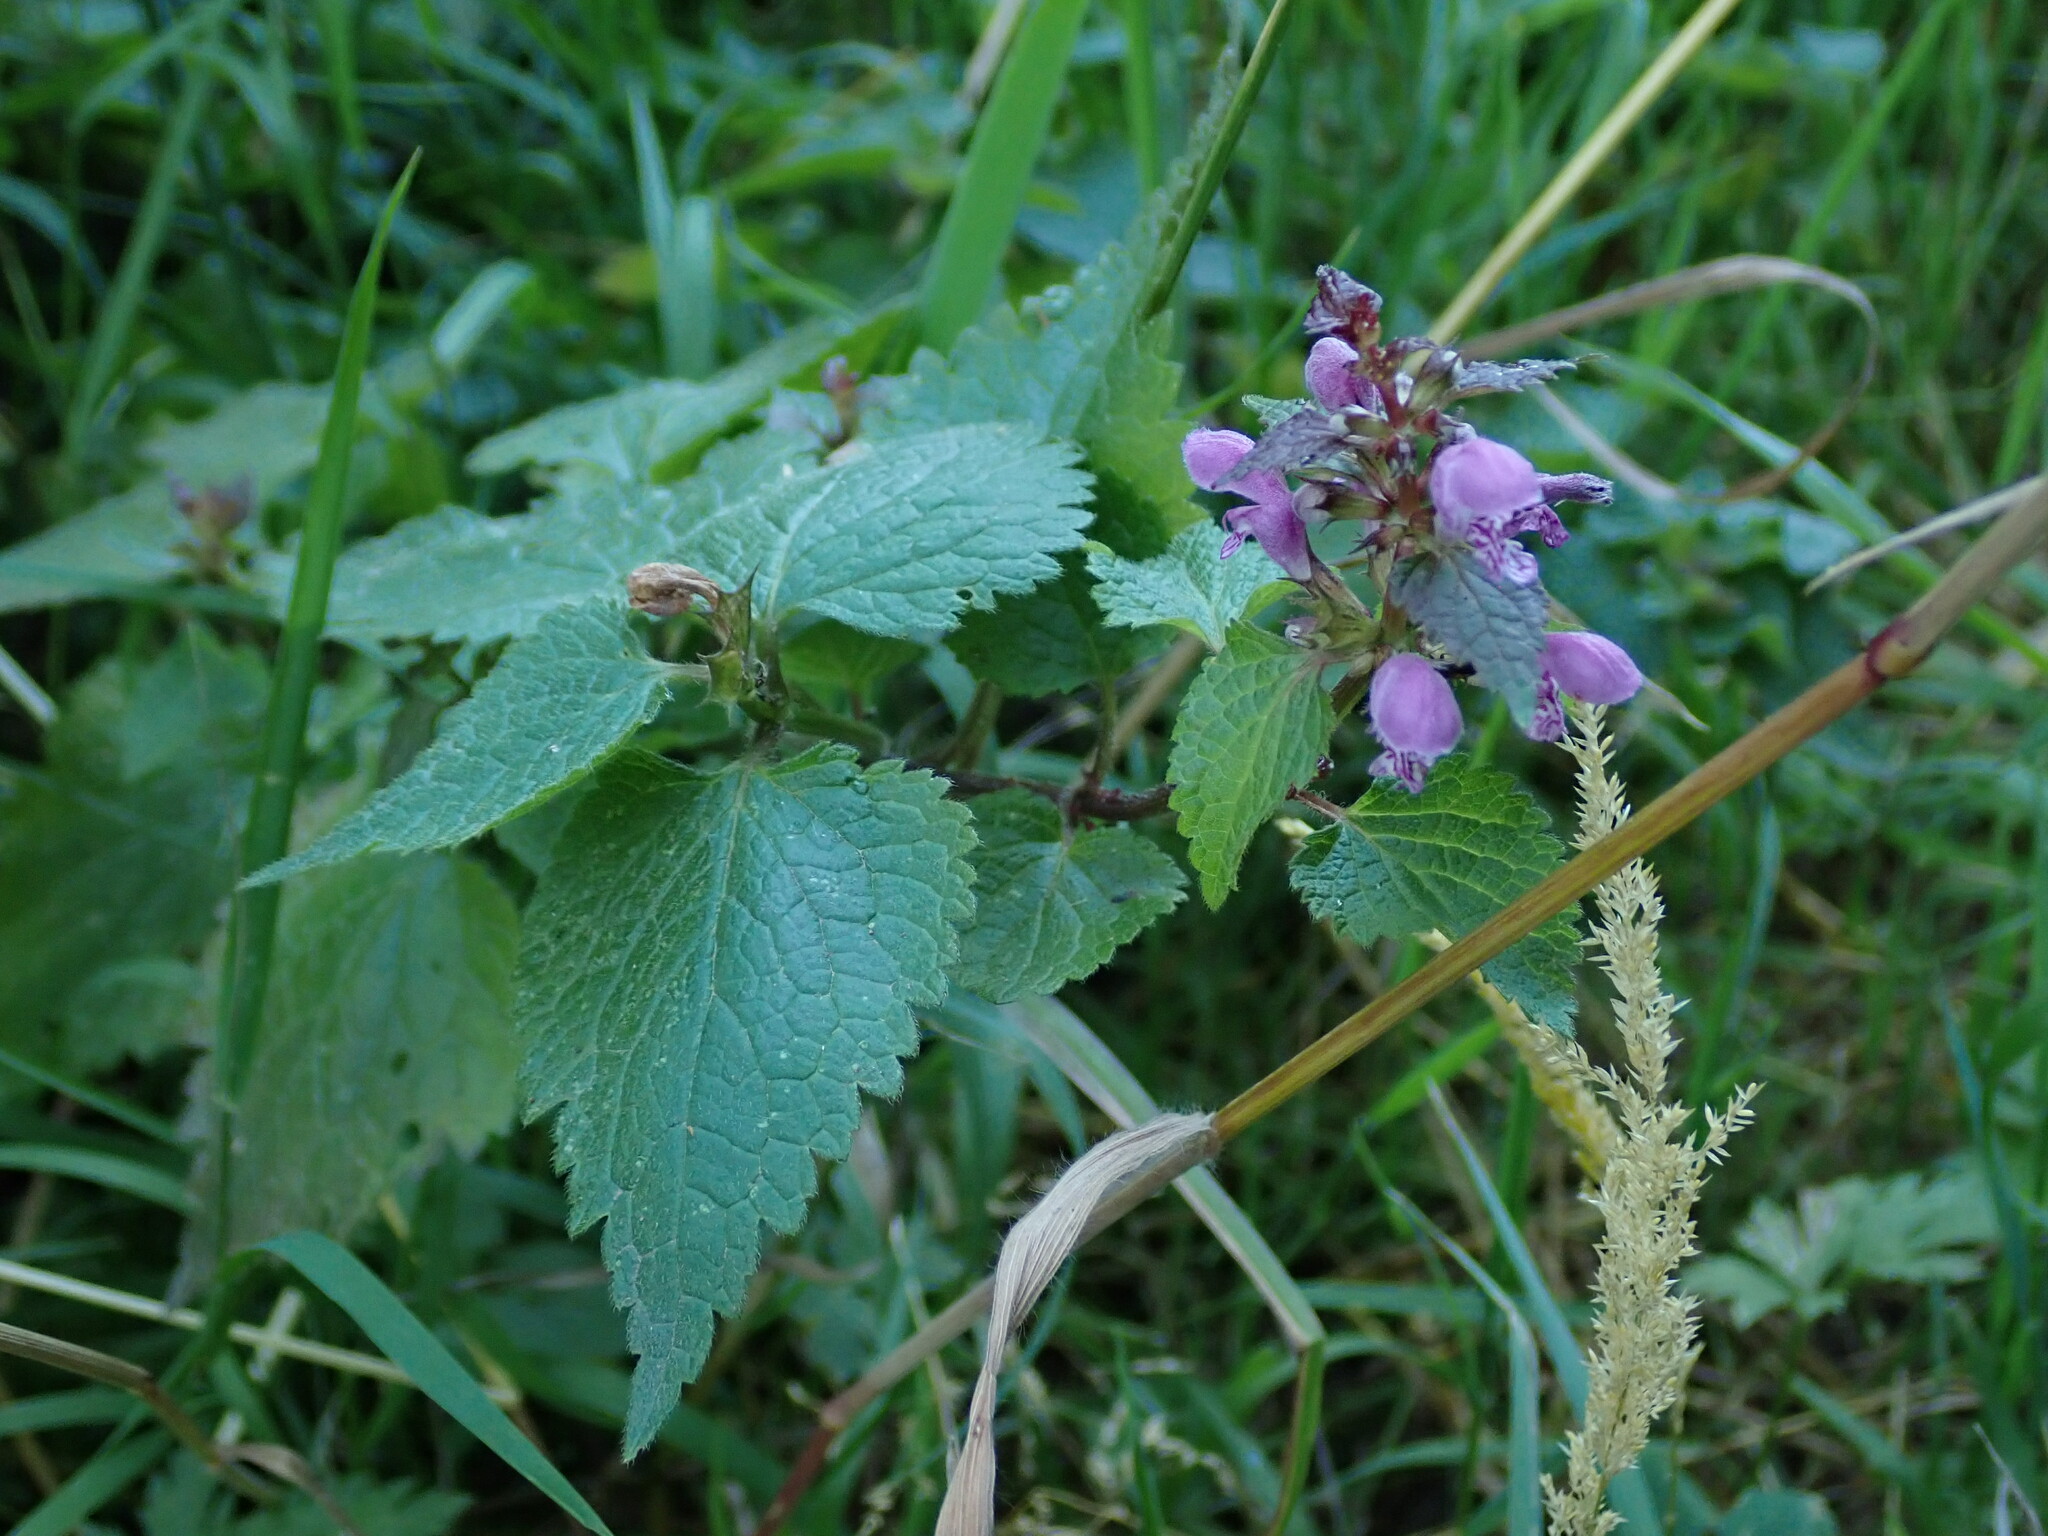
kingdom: Plantae
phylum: Tracheophyta
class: Magnoliopsida
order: Lamiales
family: Lamiaceae
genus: Lamium
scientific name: Lamium maculatum
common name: Spotted dead-nettle
